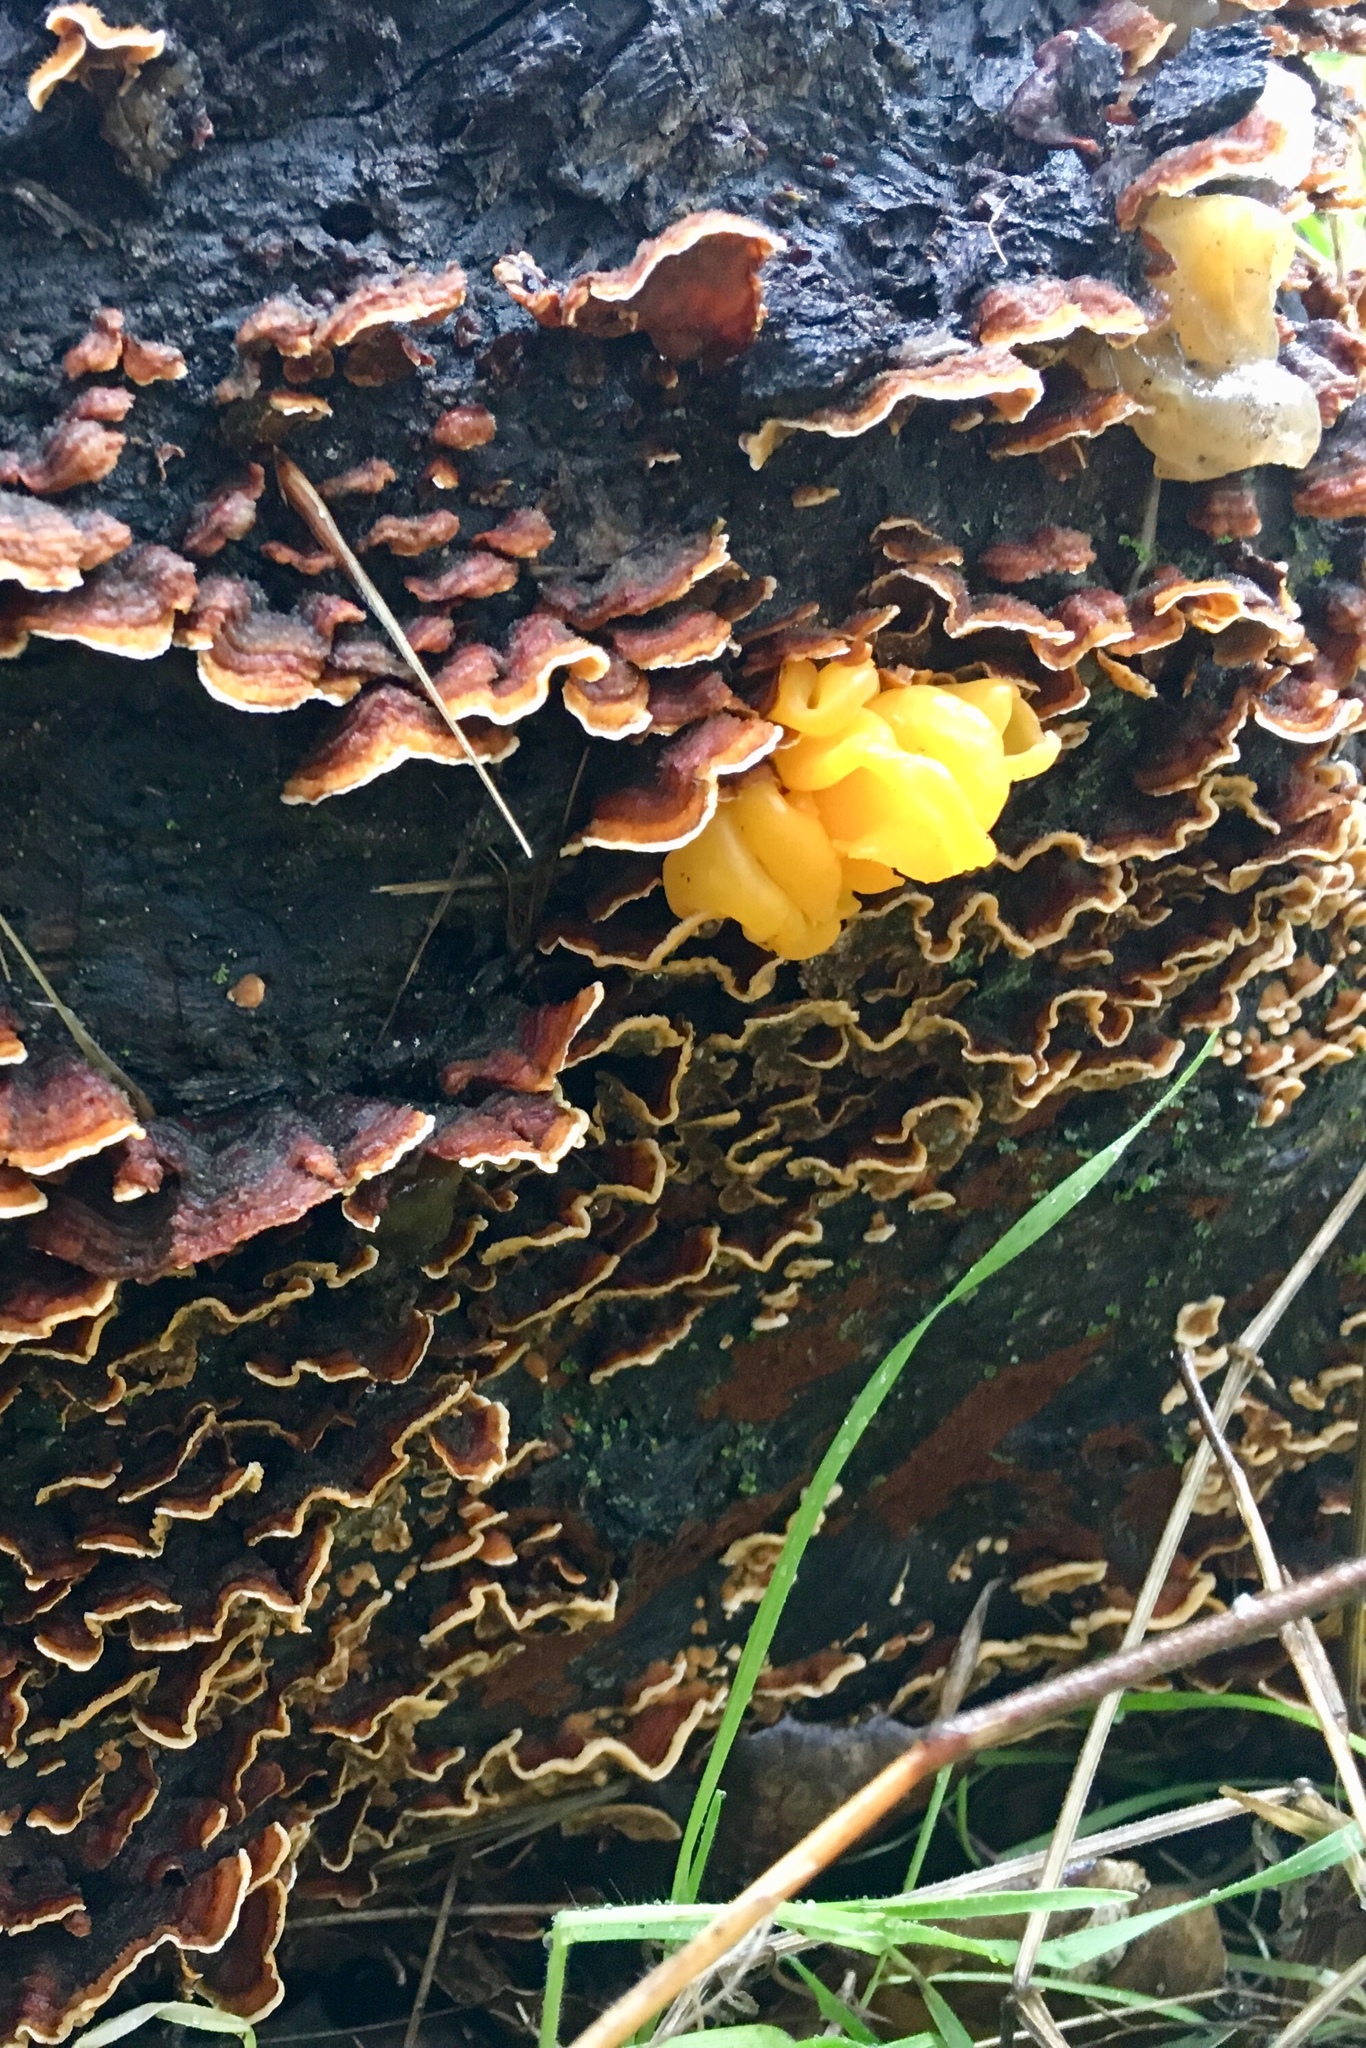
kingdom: Fungi
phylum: Basidiomycota
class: Tremellomycetes
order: Tremellales
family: Naemateliaceae
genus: Naematelia
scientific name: Naematelia aurantia
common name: Golden ear
